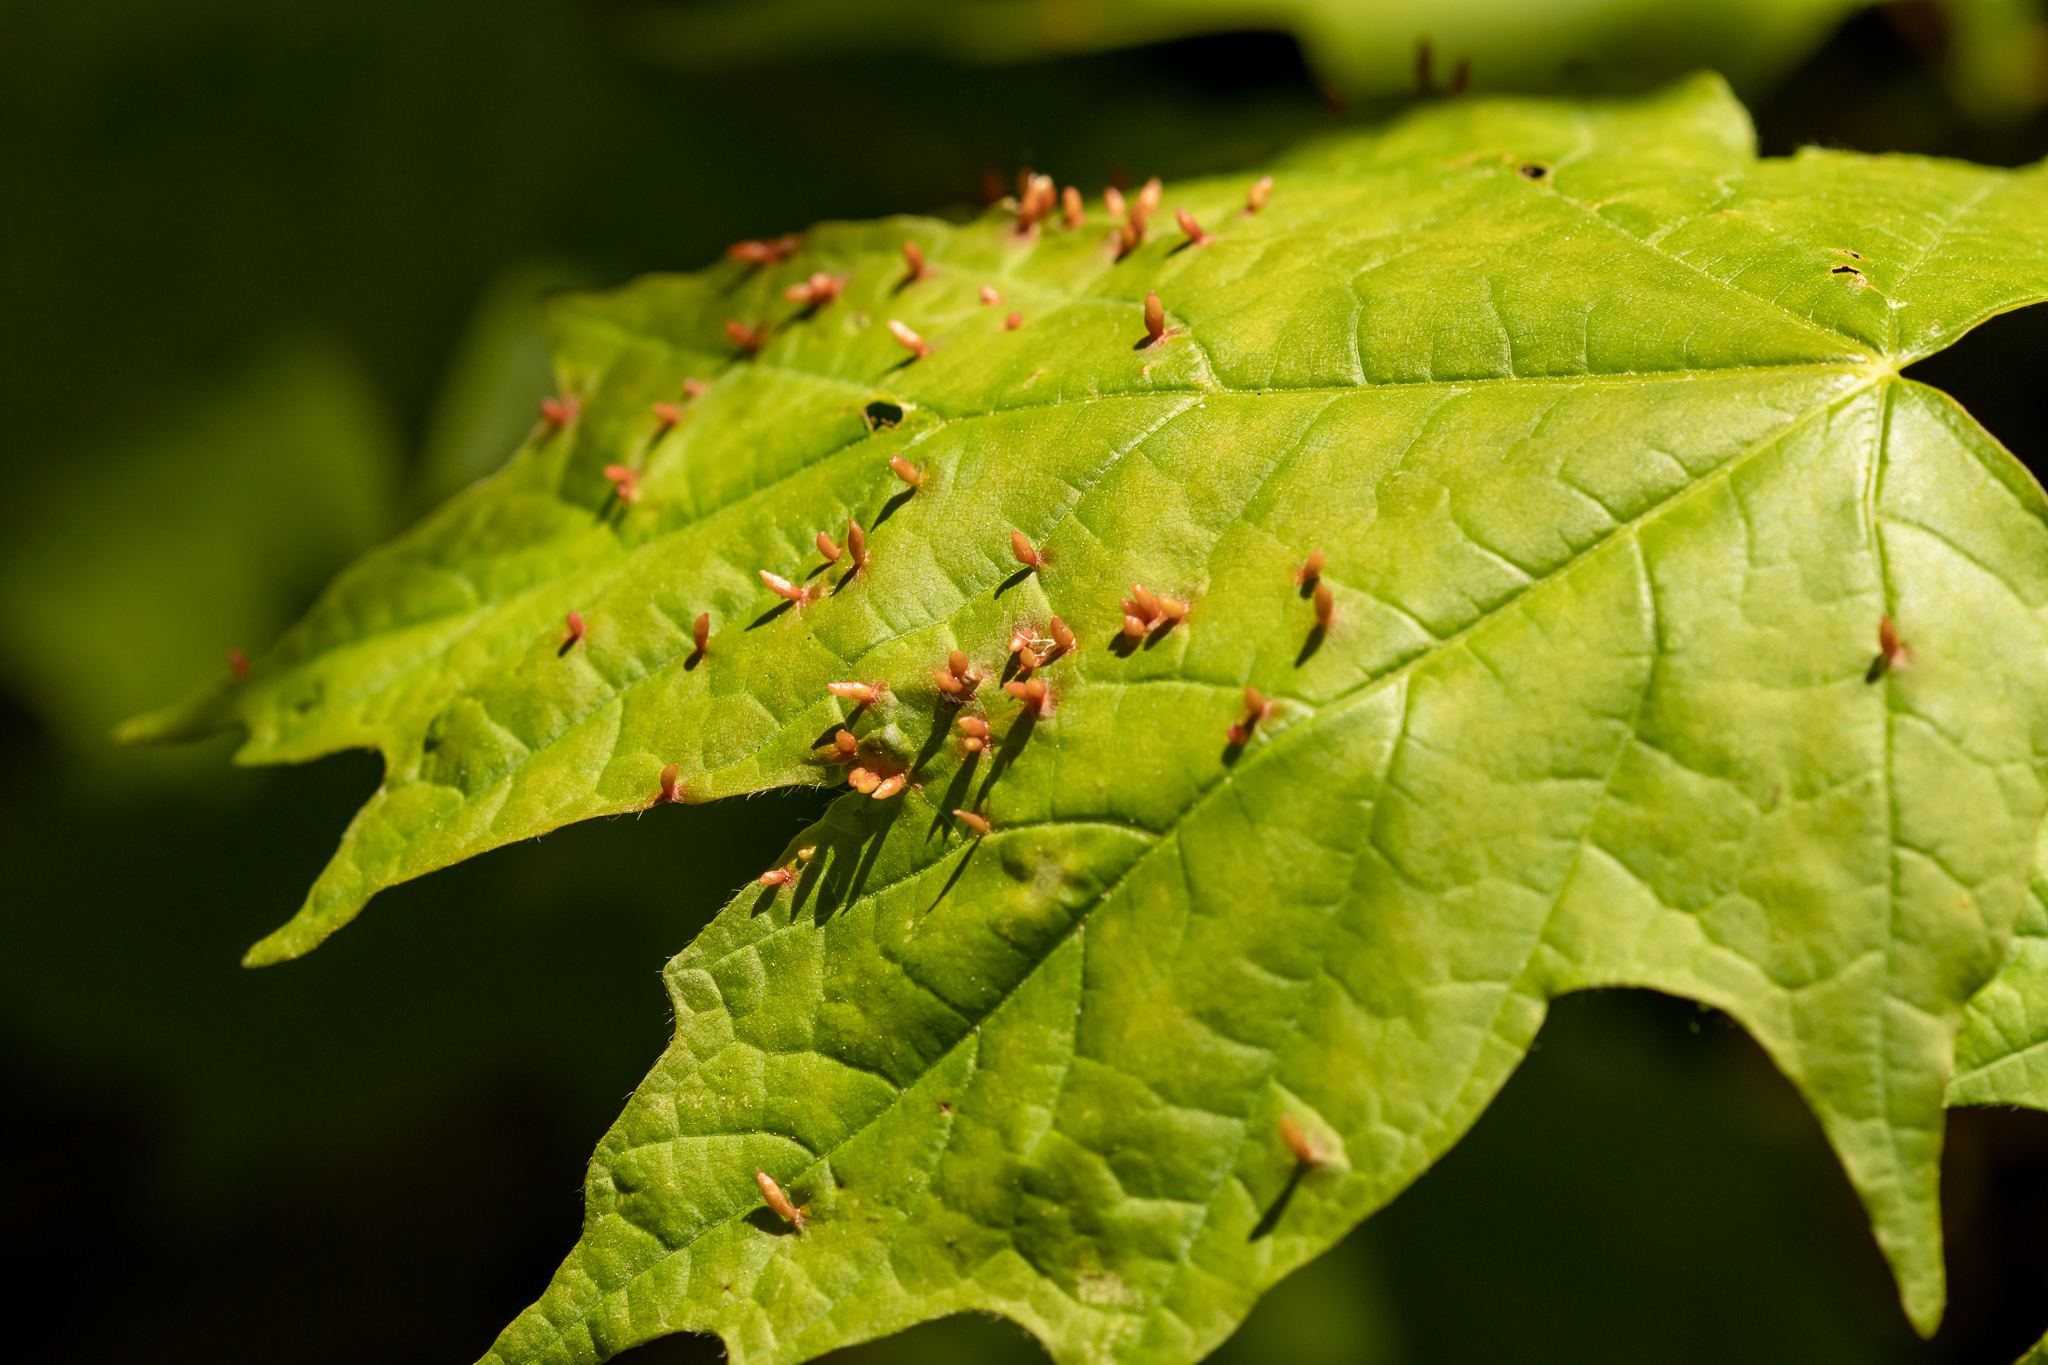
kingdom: Animalia
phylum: Arthropoda
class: Arachnida
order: Trombidiformes
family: Eriophyidae
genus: Vasates
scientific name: Vasates aceriscrumena
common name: Maple spindle gall mite
